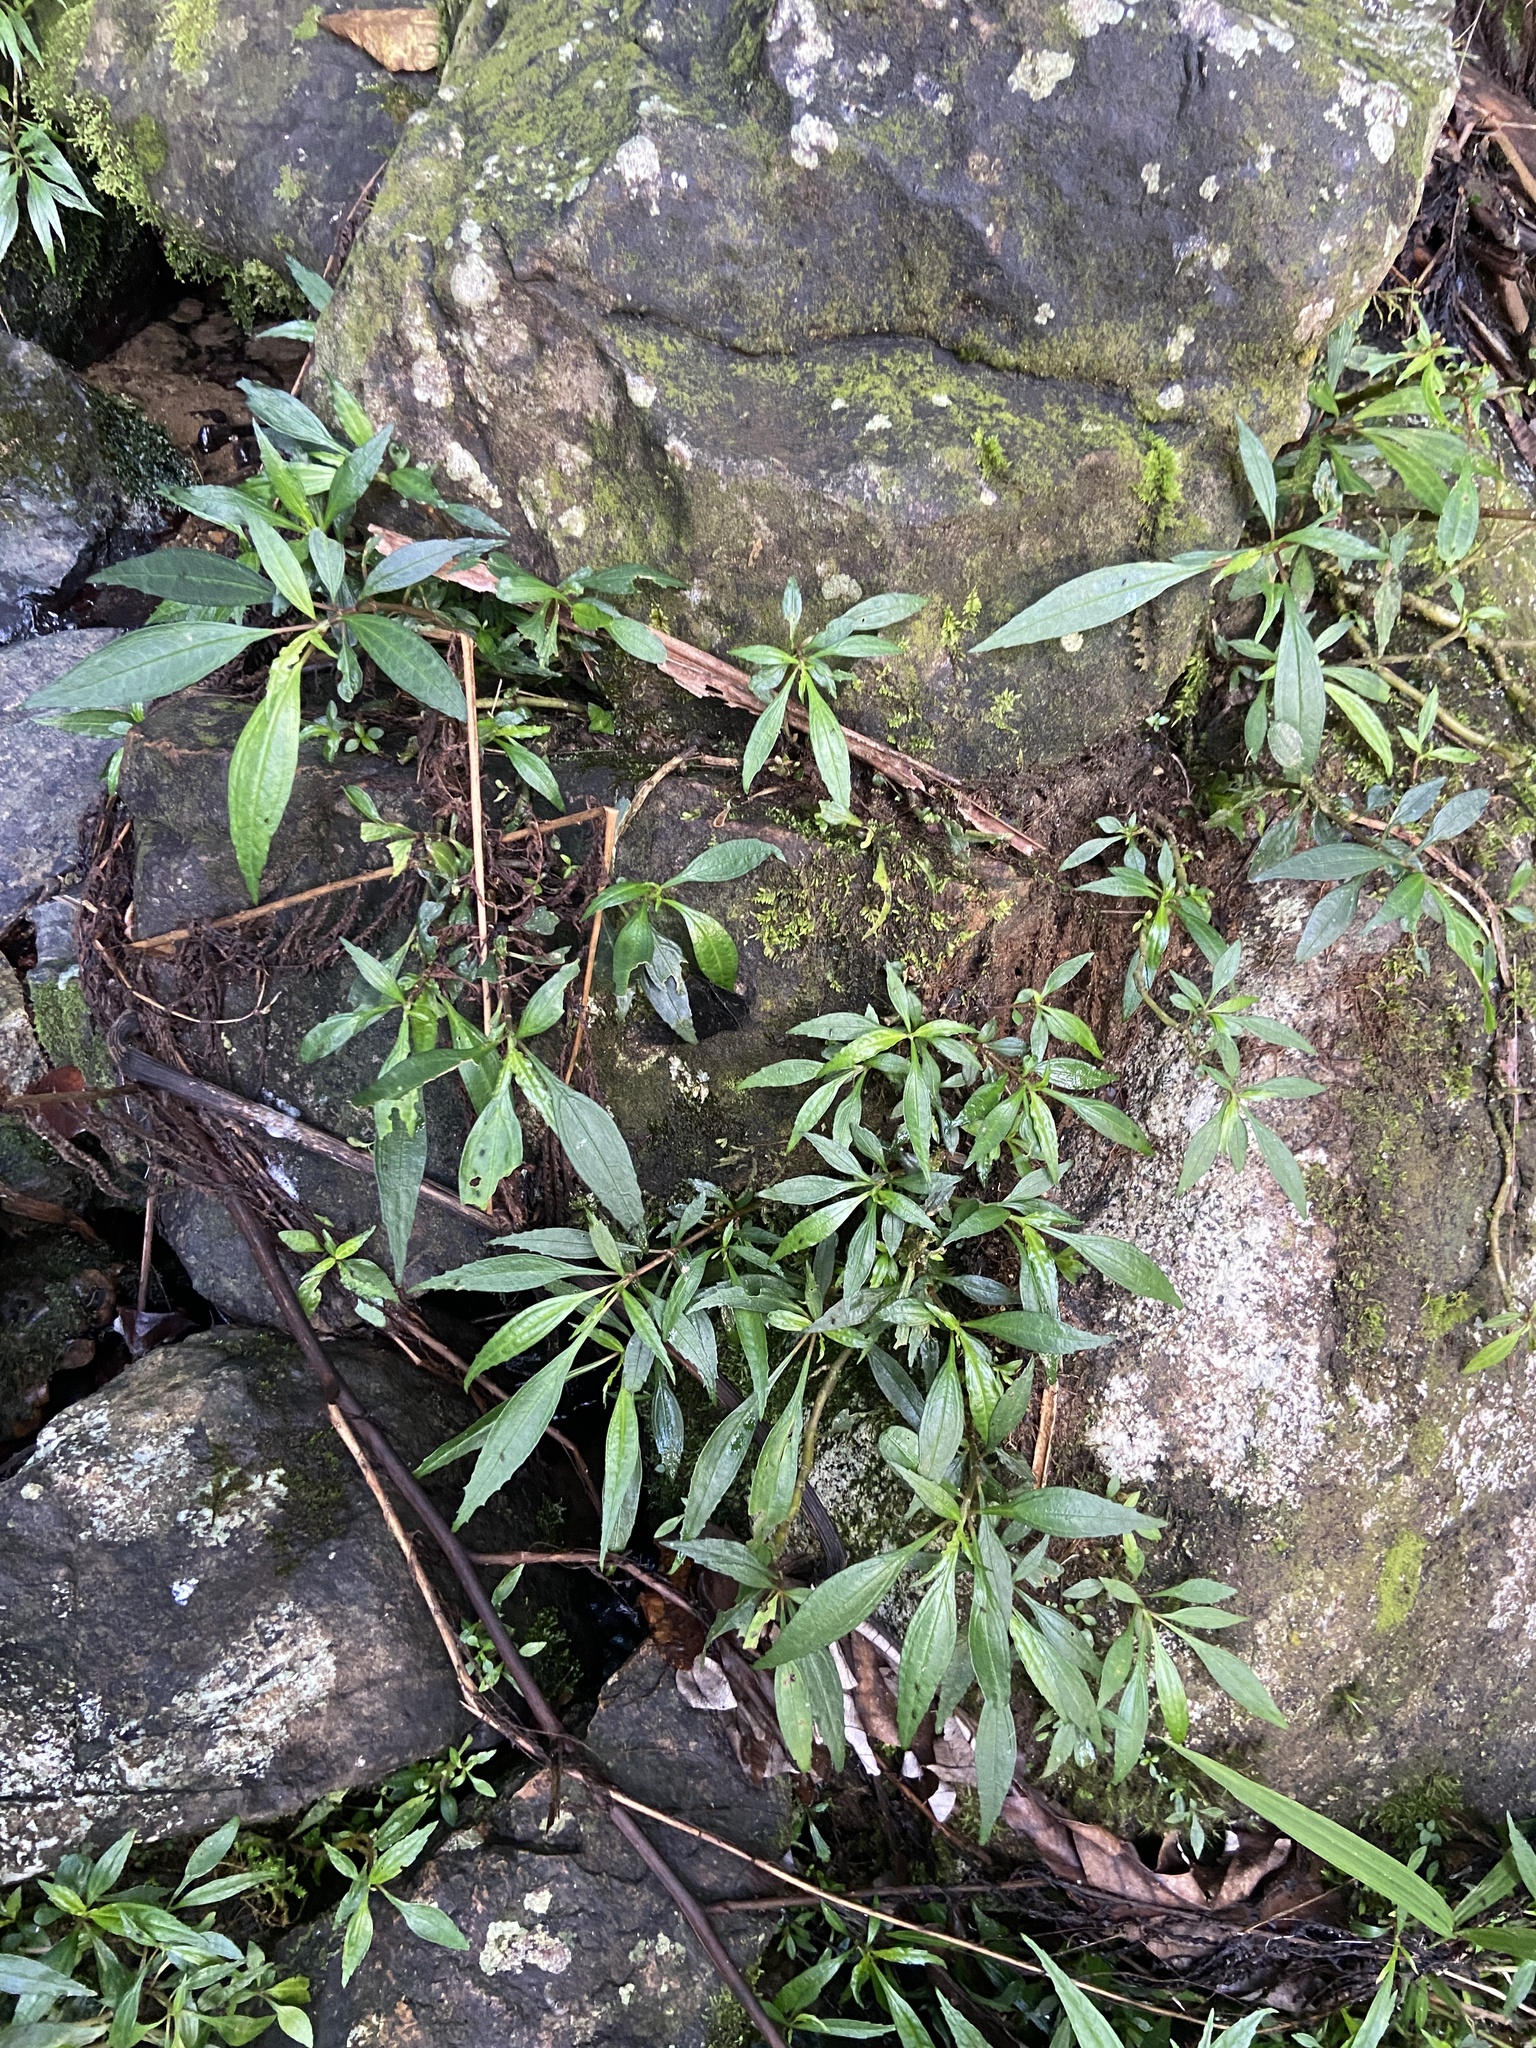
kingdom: Plantae
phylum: Tracheophyta
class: Magnoliopsida
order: Rosales
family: Urticaceae
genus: Pilea
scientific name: Pilea semidentata
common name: Cliffside clearweed
